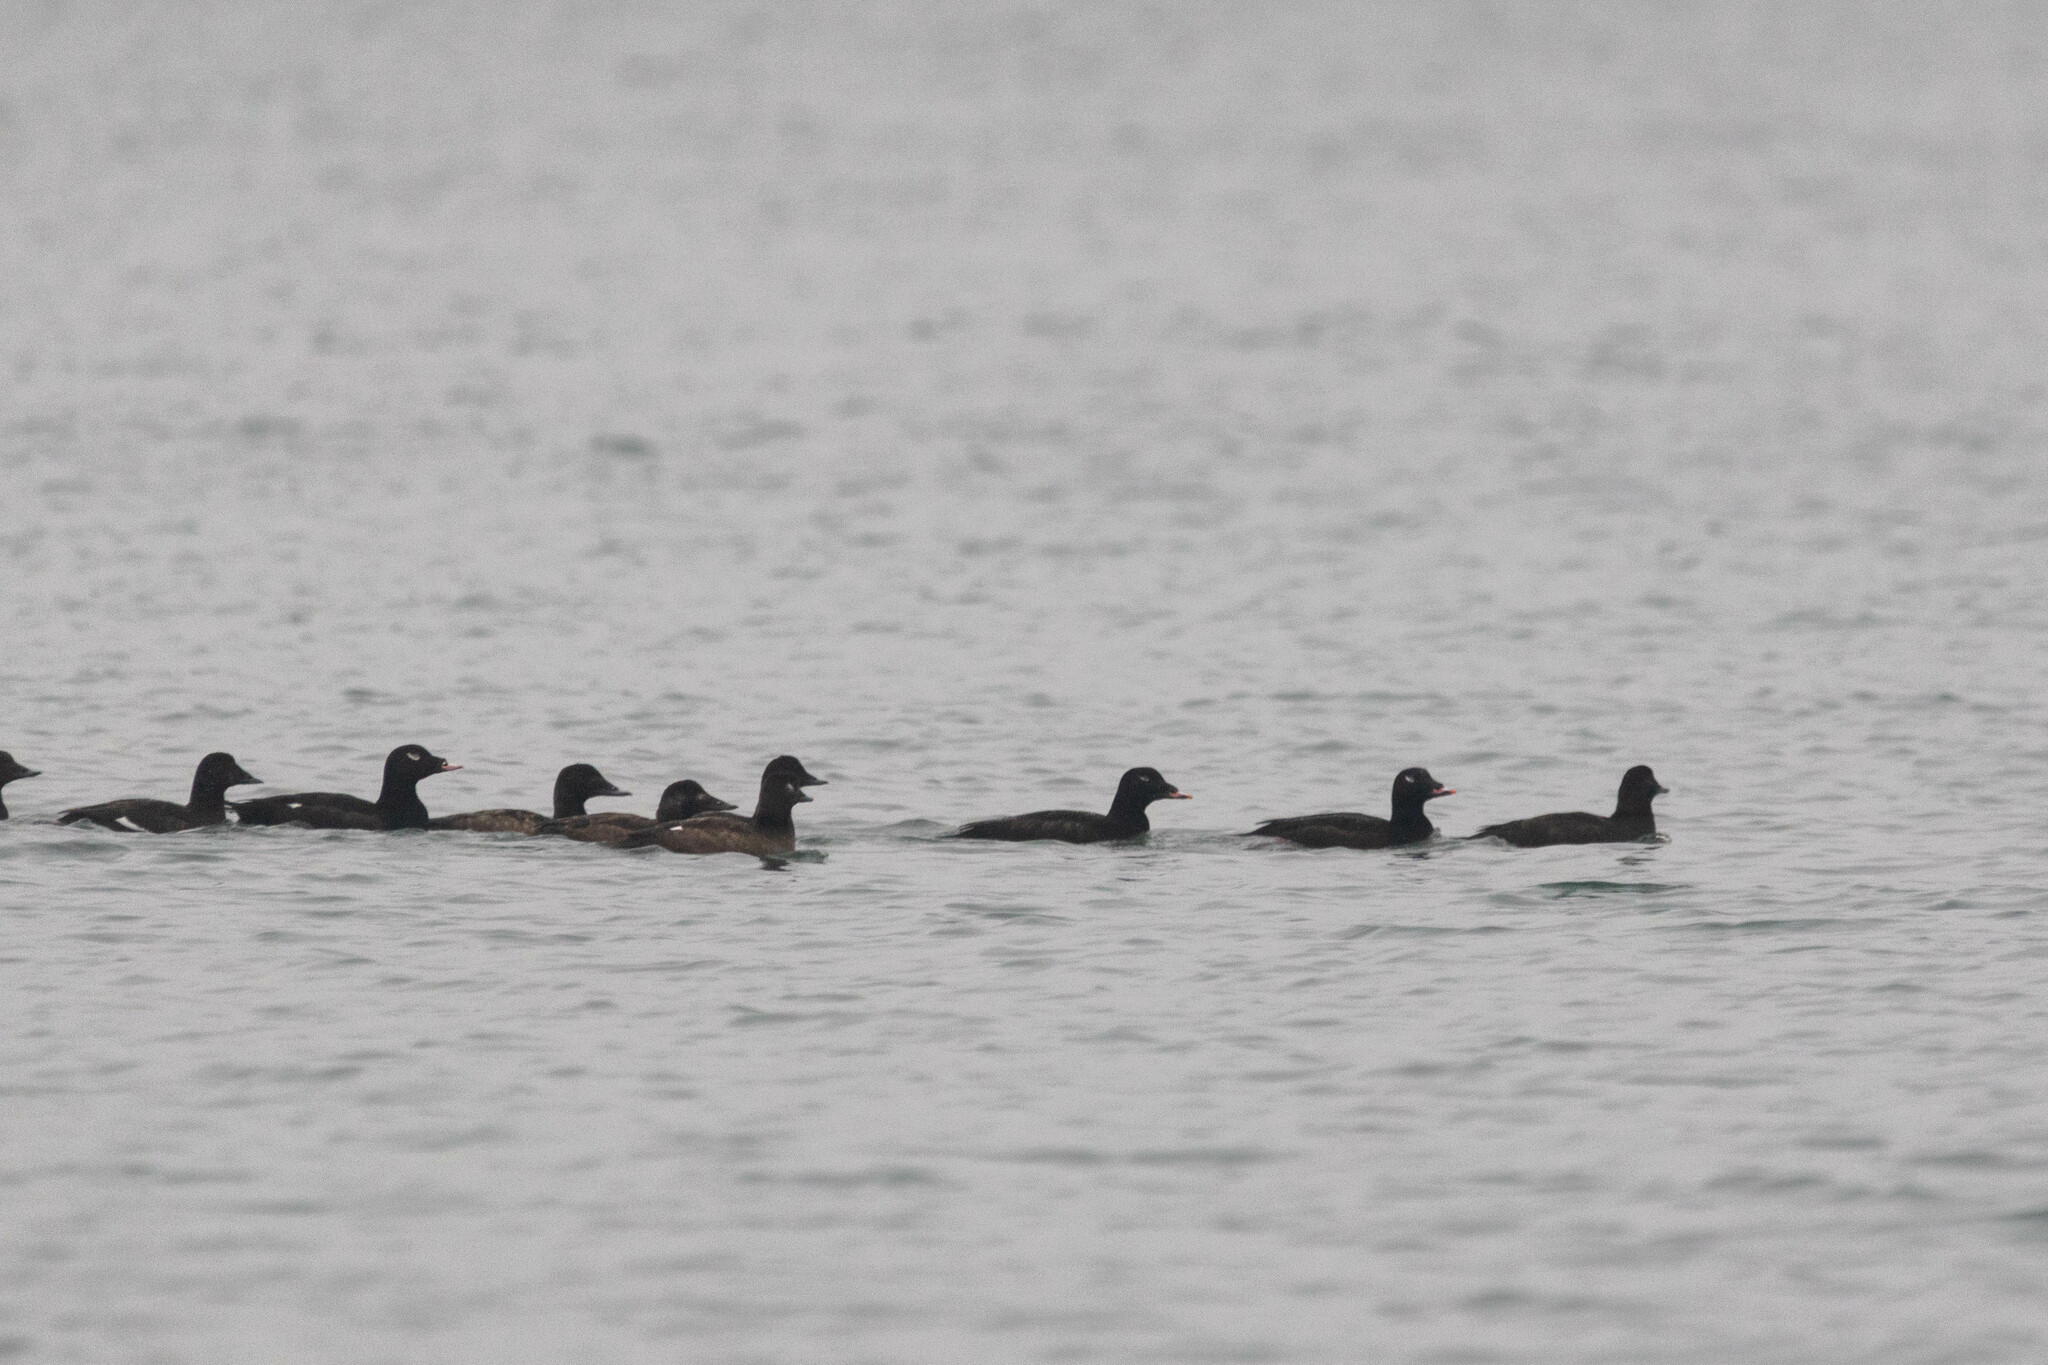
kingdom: Animalia
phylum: Chordata
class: Aves
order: Anseriformes
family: Anatidae
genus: Melanitta
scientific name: Melanitta deglandi
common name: White-winged scoter
